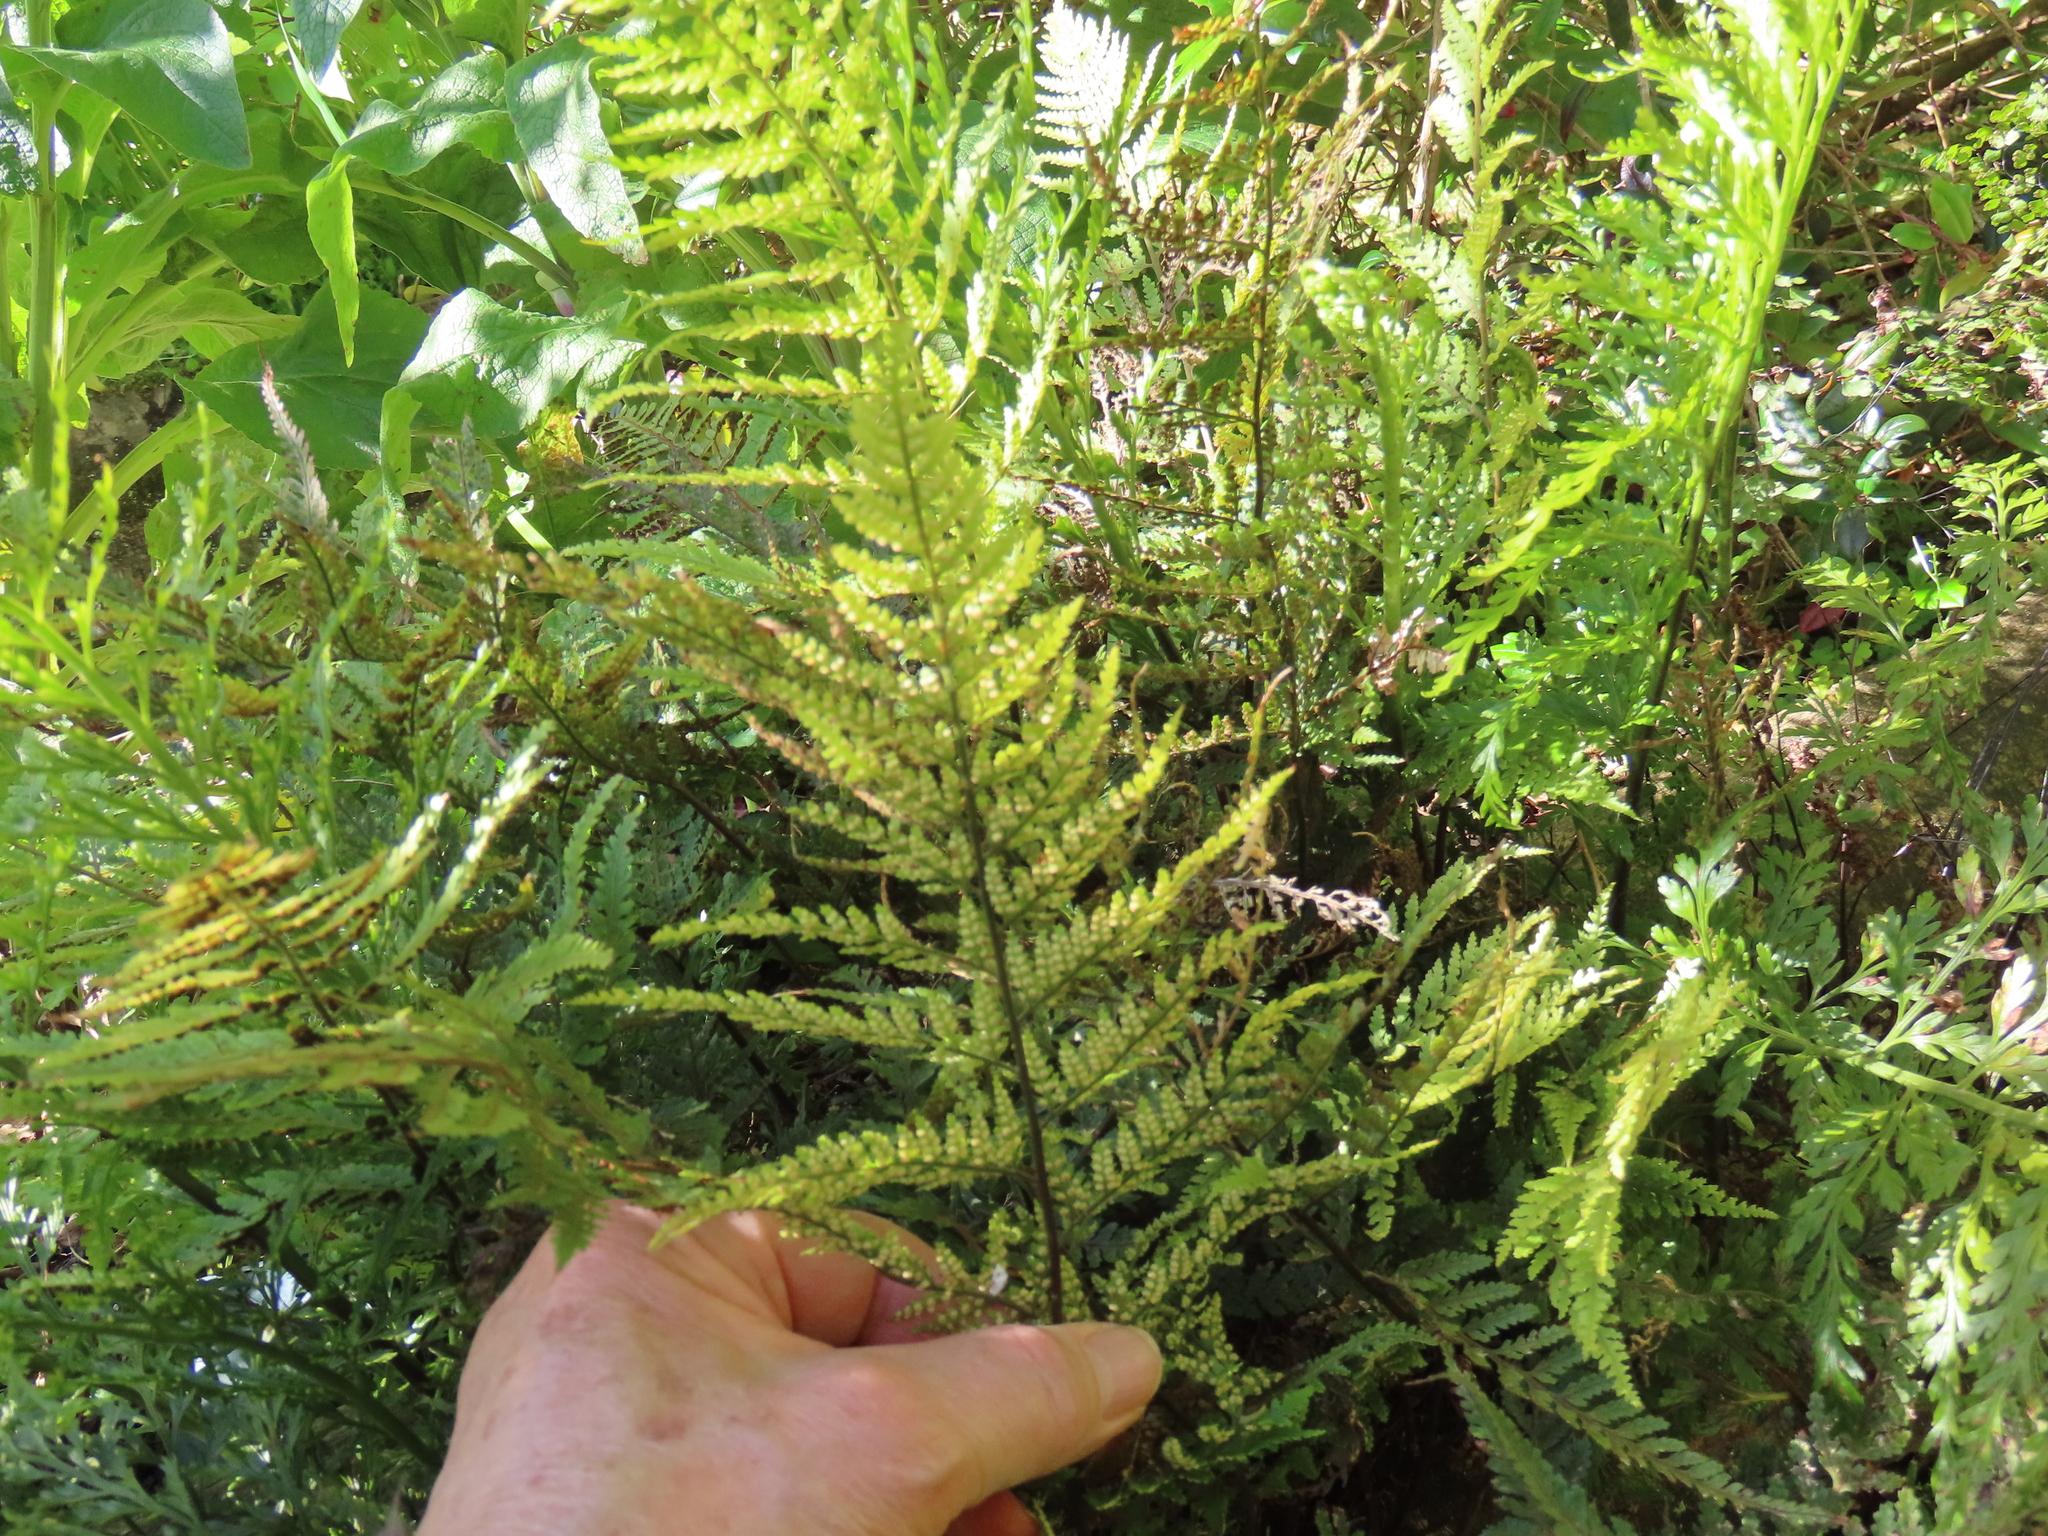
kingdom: Plantae
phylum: Tracheophyta
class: Polypodiopsida
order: Polypodiales
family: Dryopteridaceae
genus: Parapolystichum
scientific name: Parapolystichum glabellum
